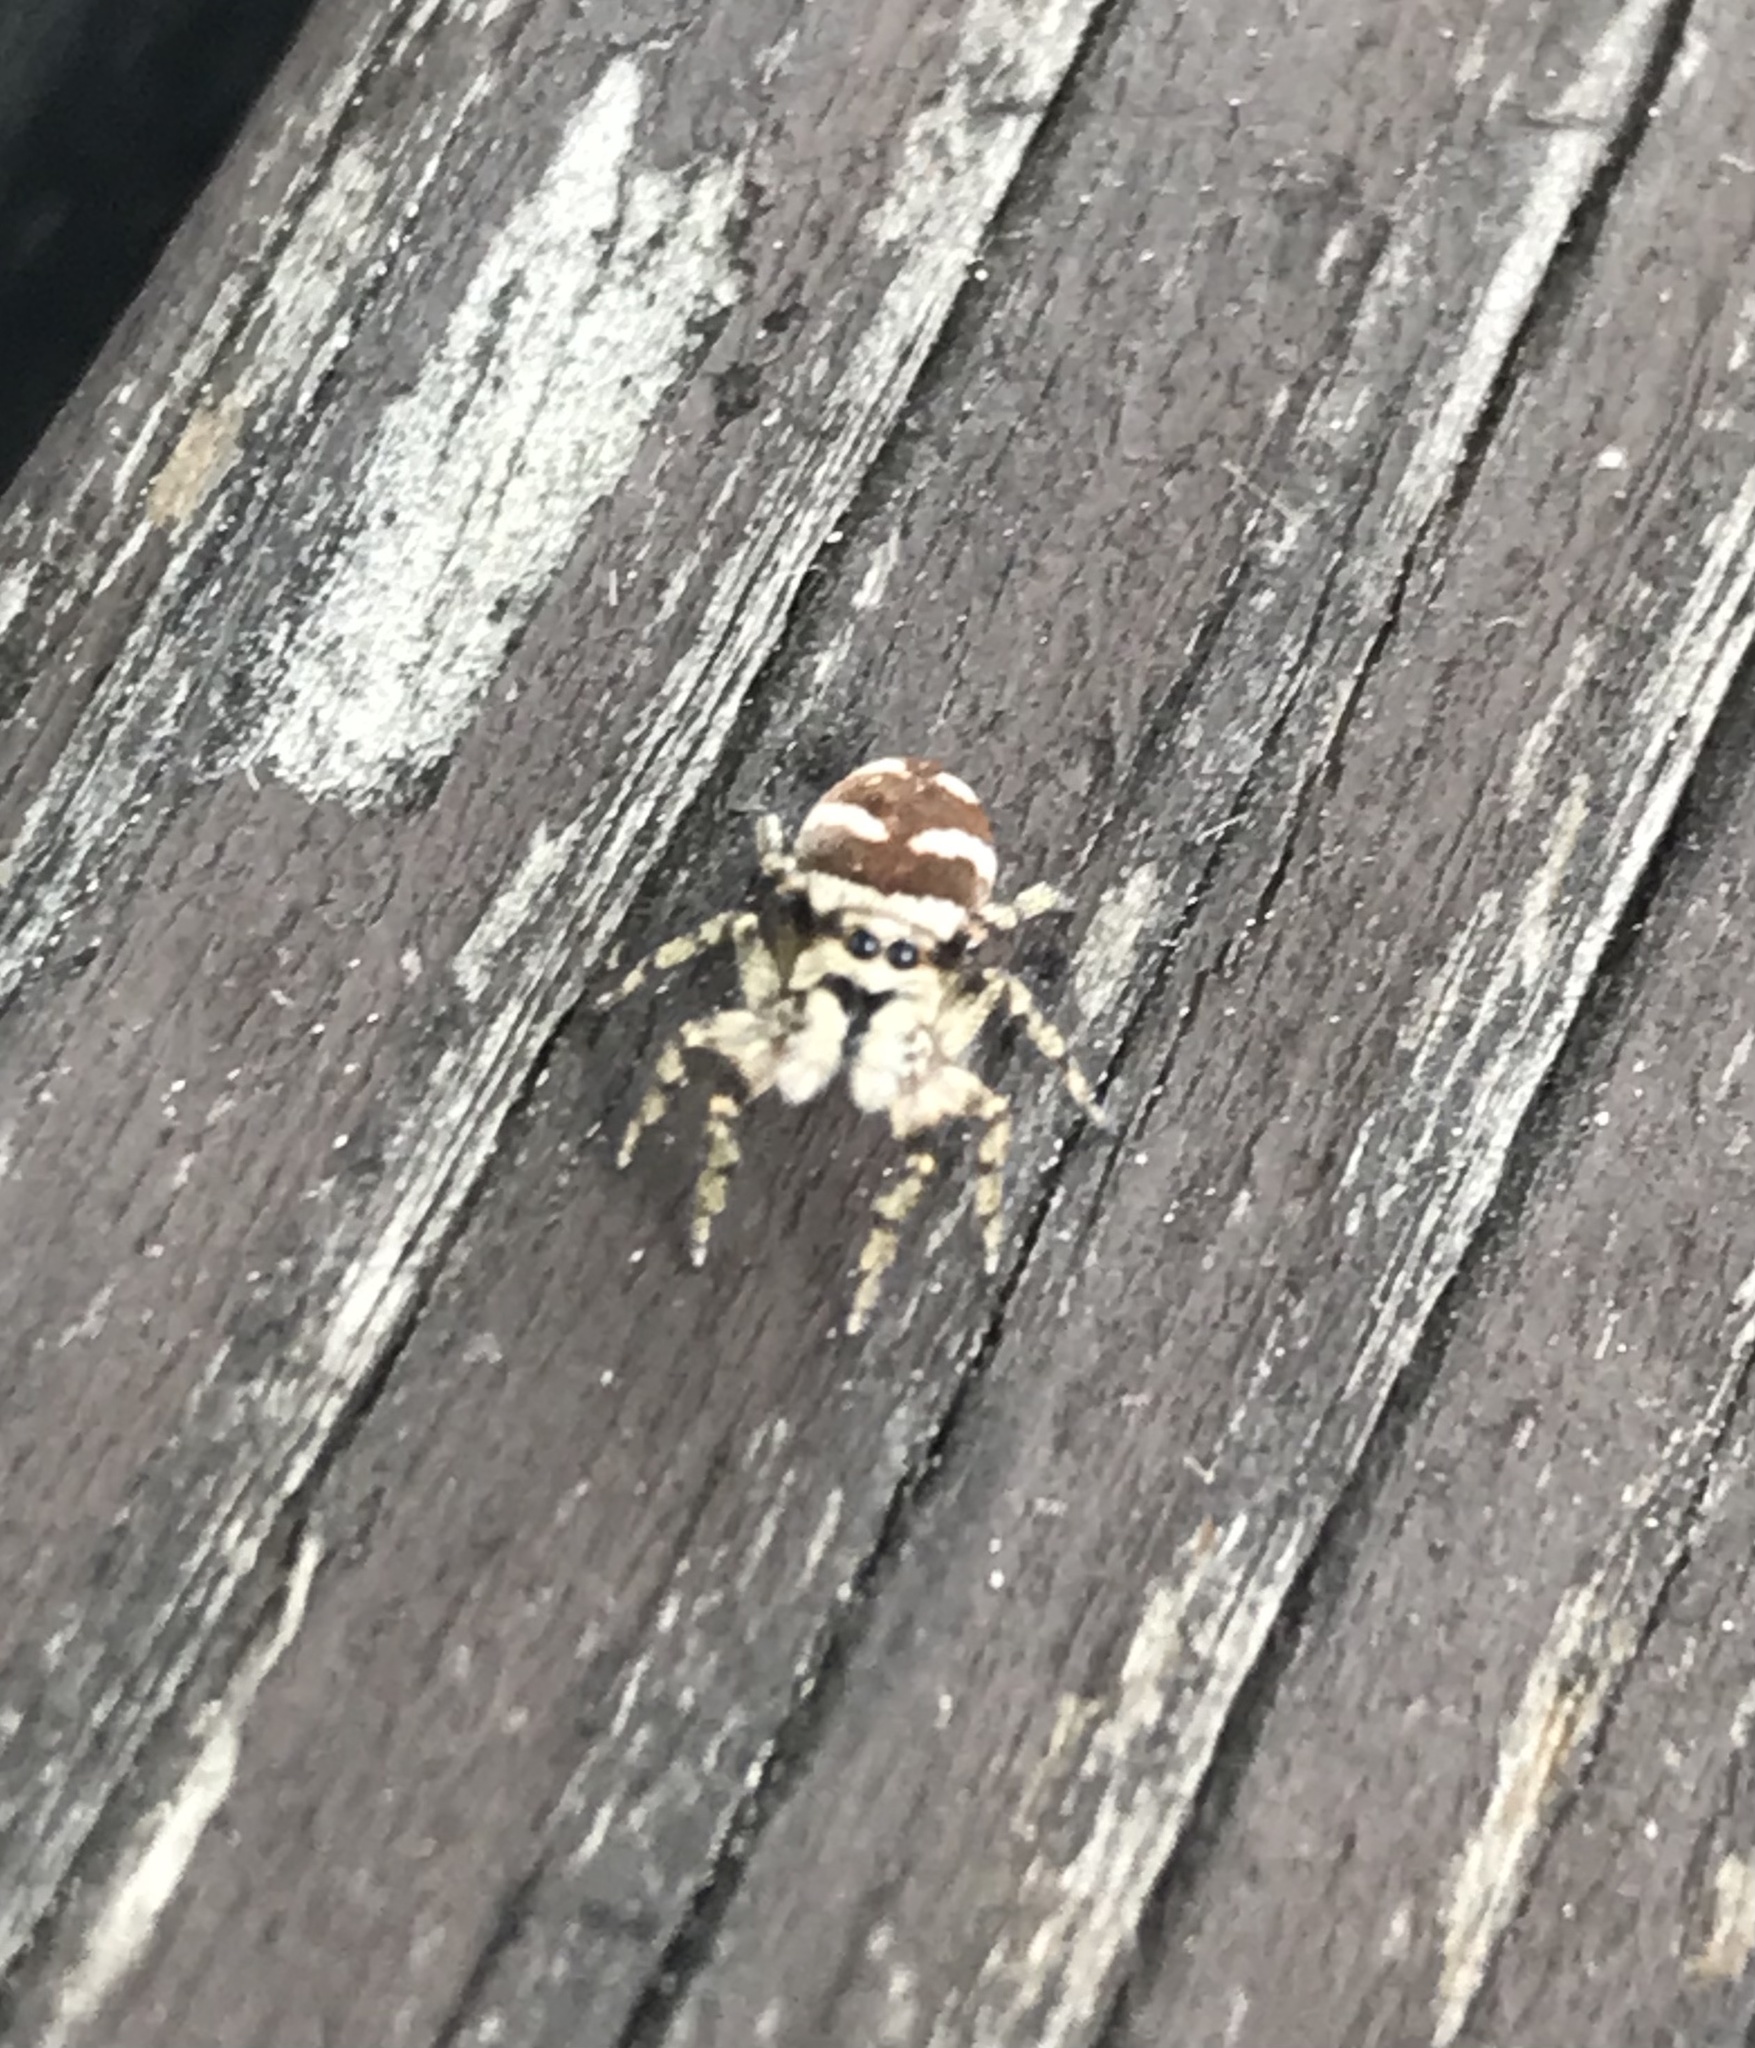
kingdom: Animalia
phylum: Arthropoda
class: Arachnida
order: Araneae
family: Salticidae
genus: Salticus
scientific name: Salticus scenicus
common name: Zebra jumper
